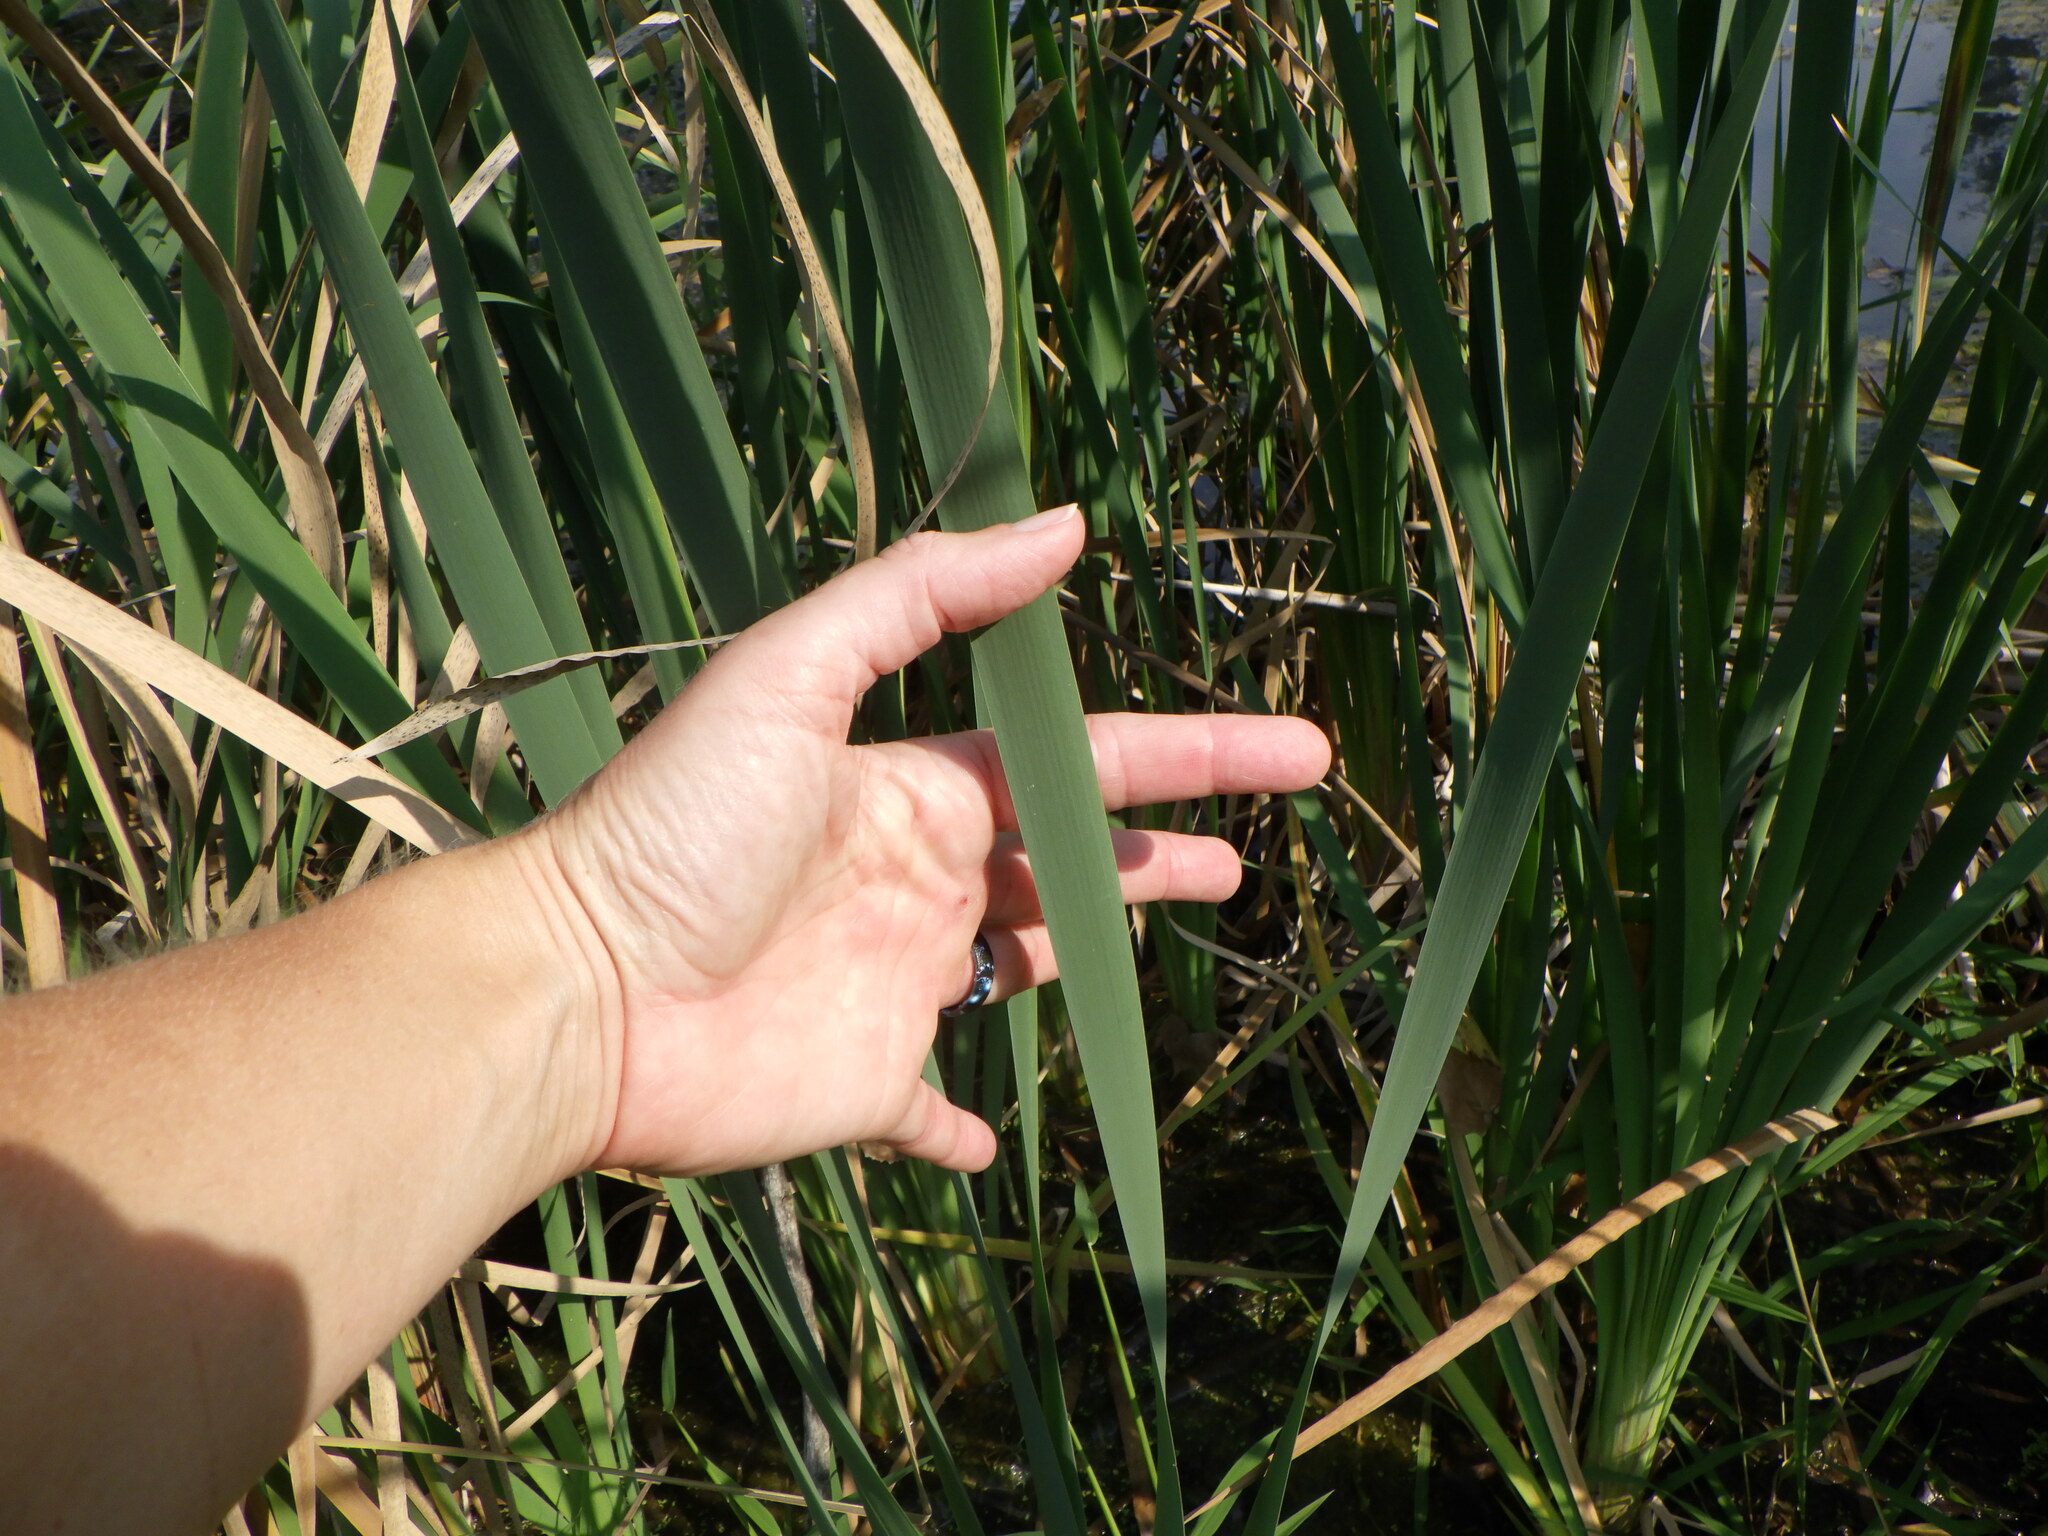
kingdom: Plantae
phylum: Tracheophyta
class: Liliopsida
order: Poales
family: Typhaceae
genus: Typha
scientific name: Typha latifolia
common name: Broadleaf cattail
